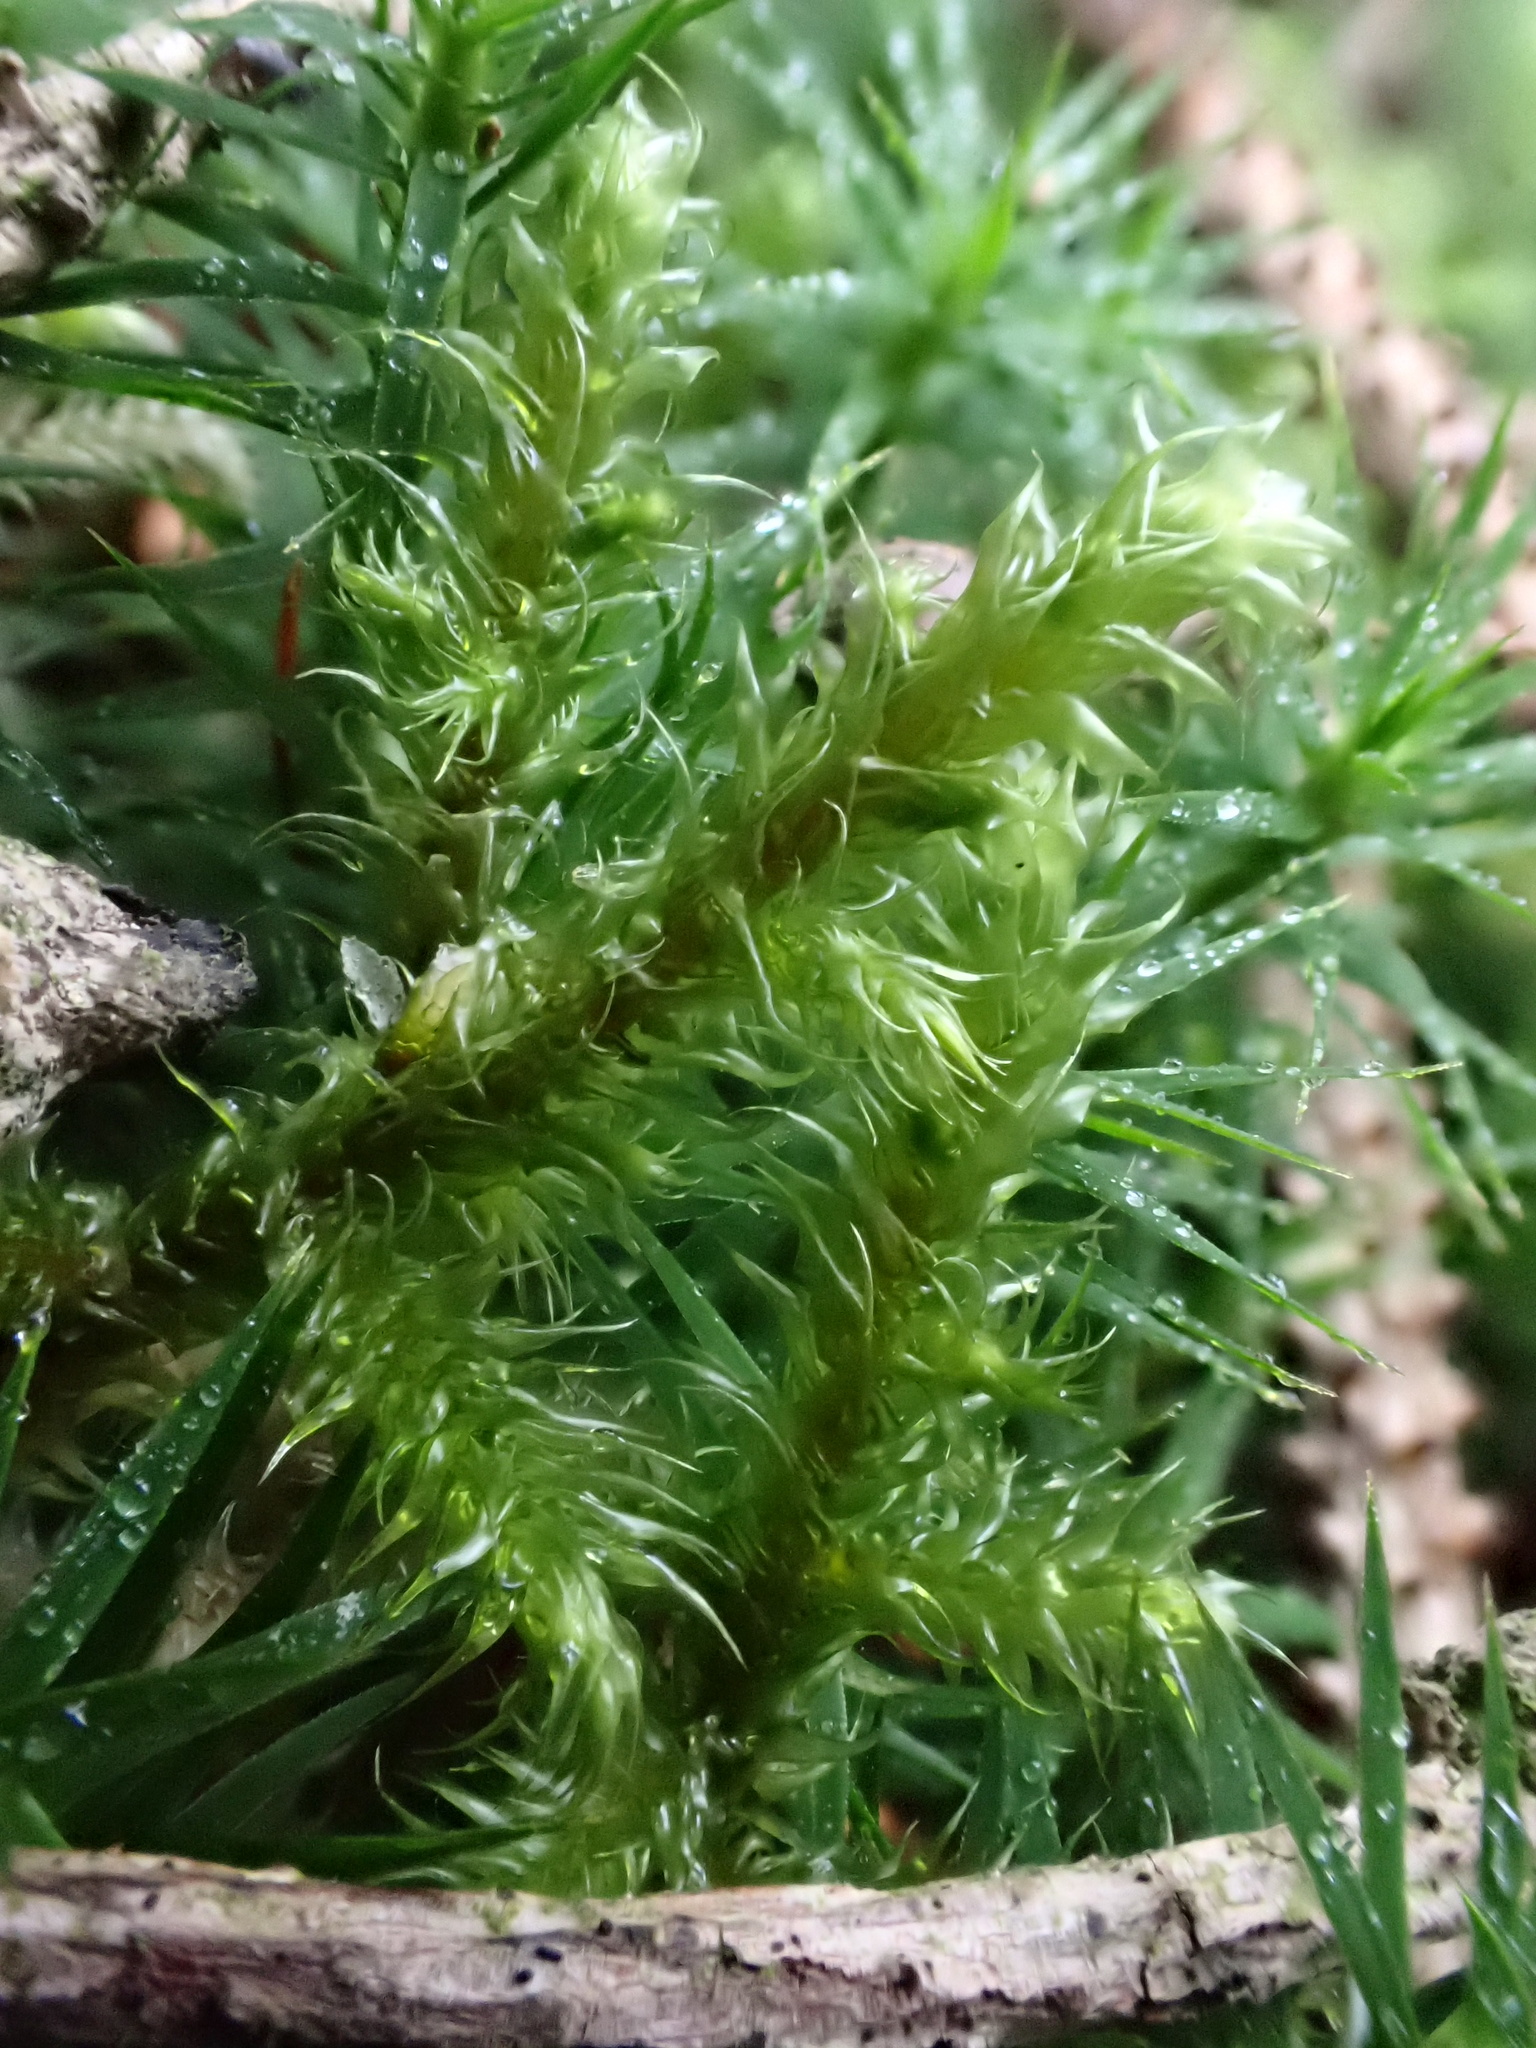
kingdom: Plantae
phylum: Bryophyta
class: Bryopsida
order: Hypnales
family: Hylocomiaceae
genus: Rhytidiadelphus
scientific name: Rhytidiadelphus loreus
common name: Lanky moss
